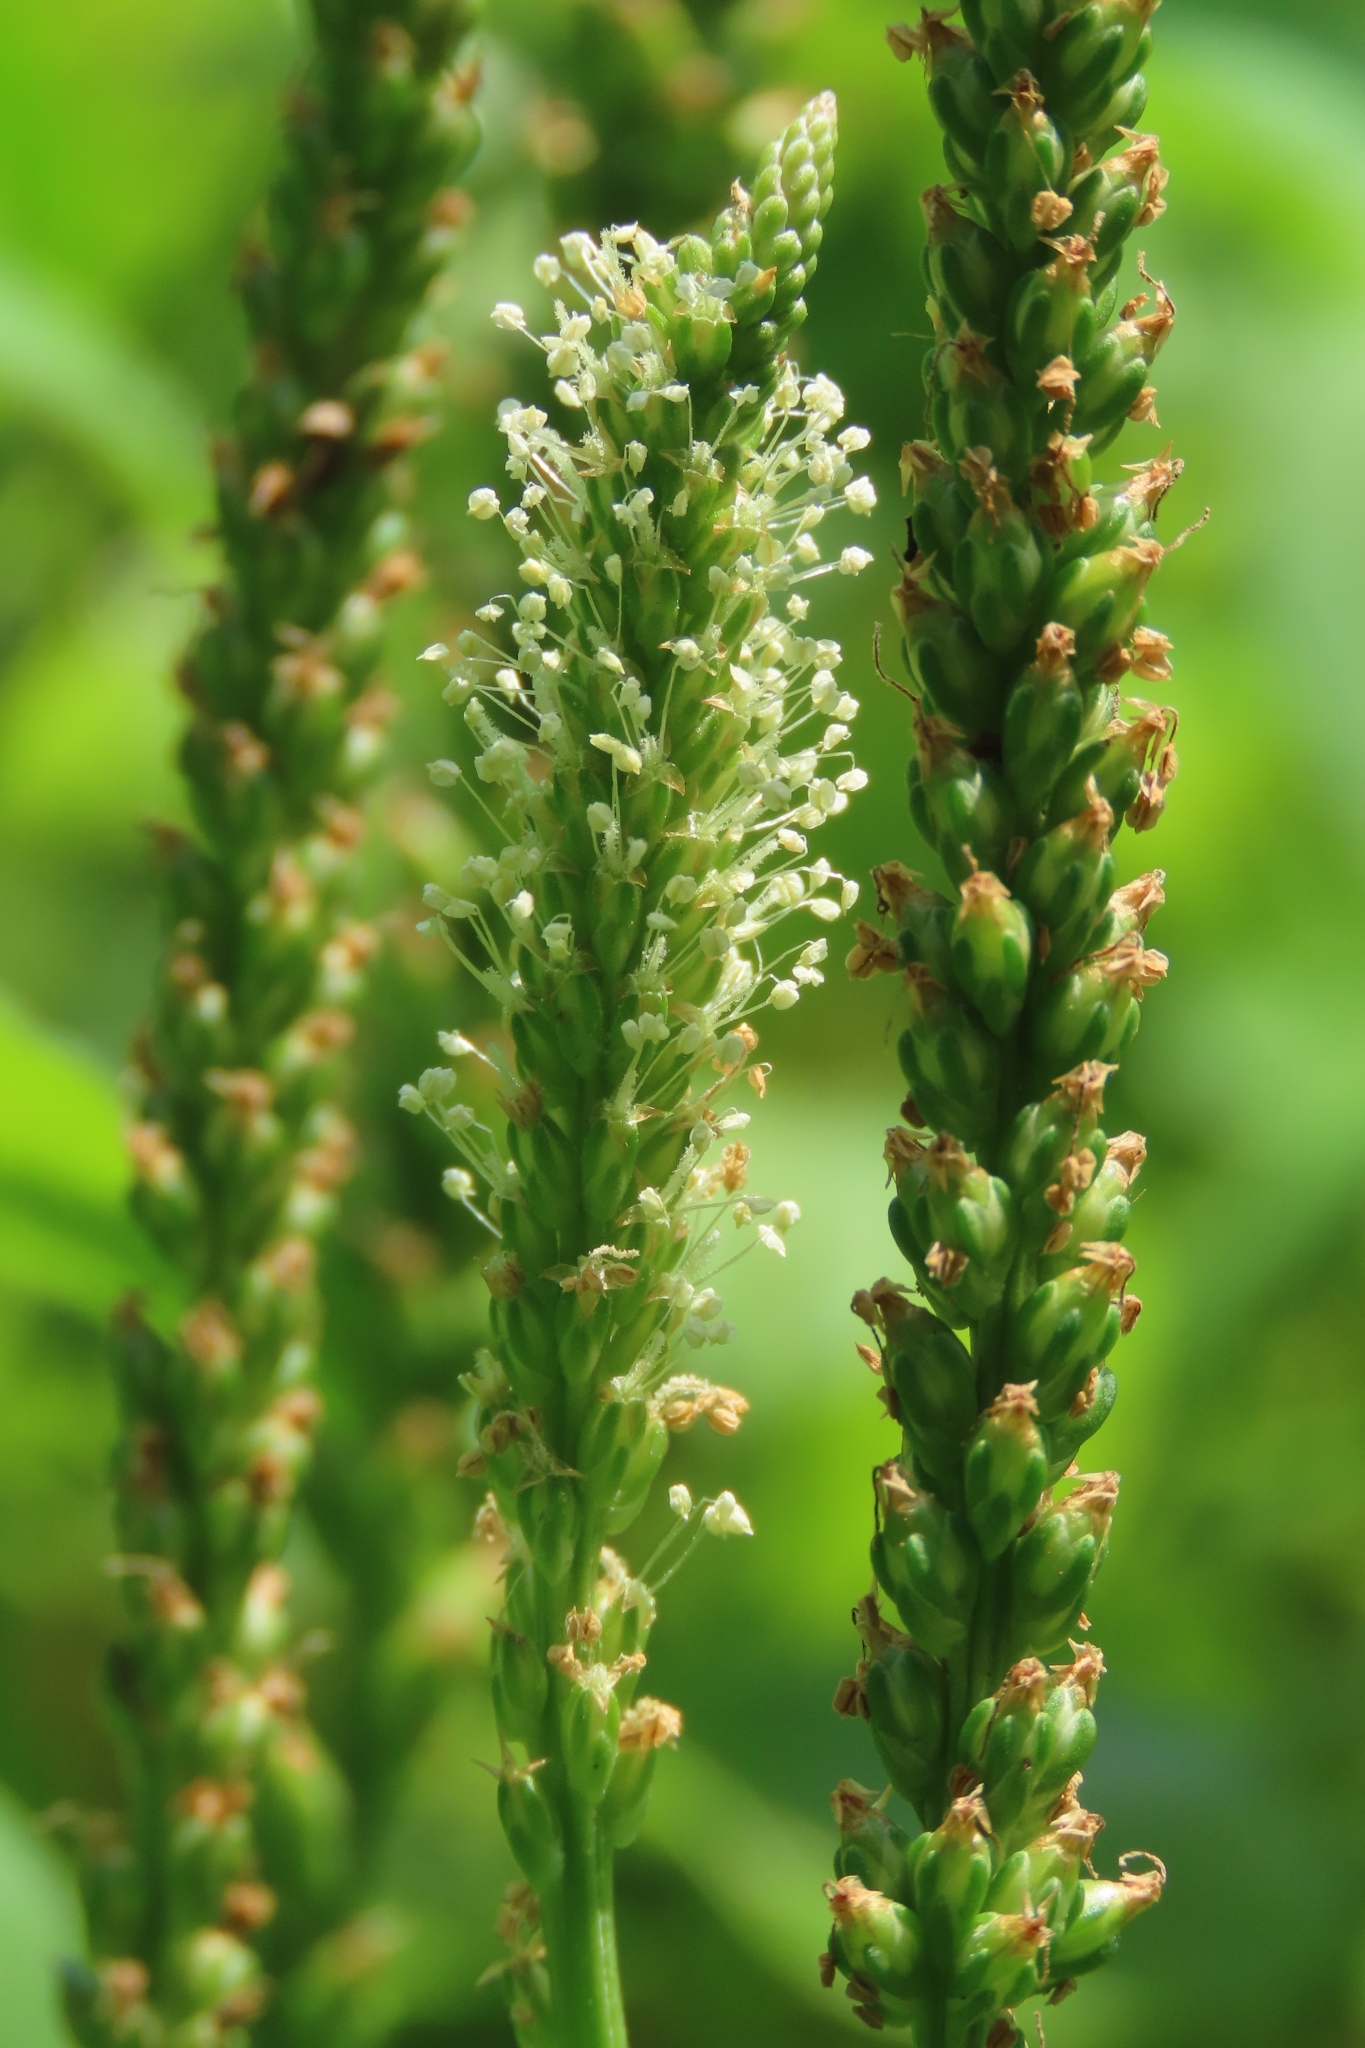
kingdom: Plantae
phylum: Tracheophyta
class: Magnoliopsida
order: Lamiales
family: Plantaginaceae
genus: Plantago
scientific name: Plantago asiatica
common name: Psyllium
